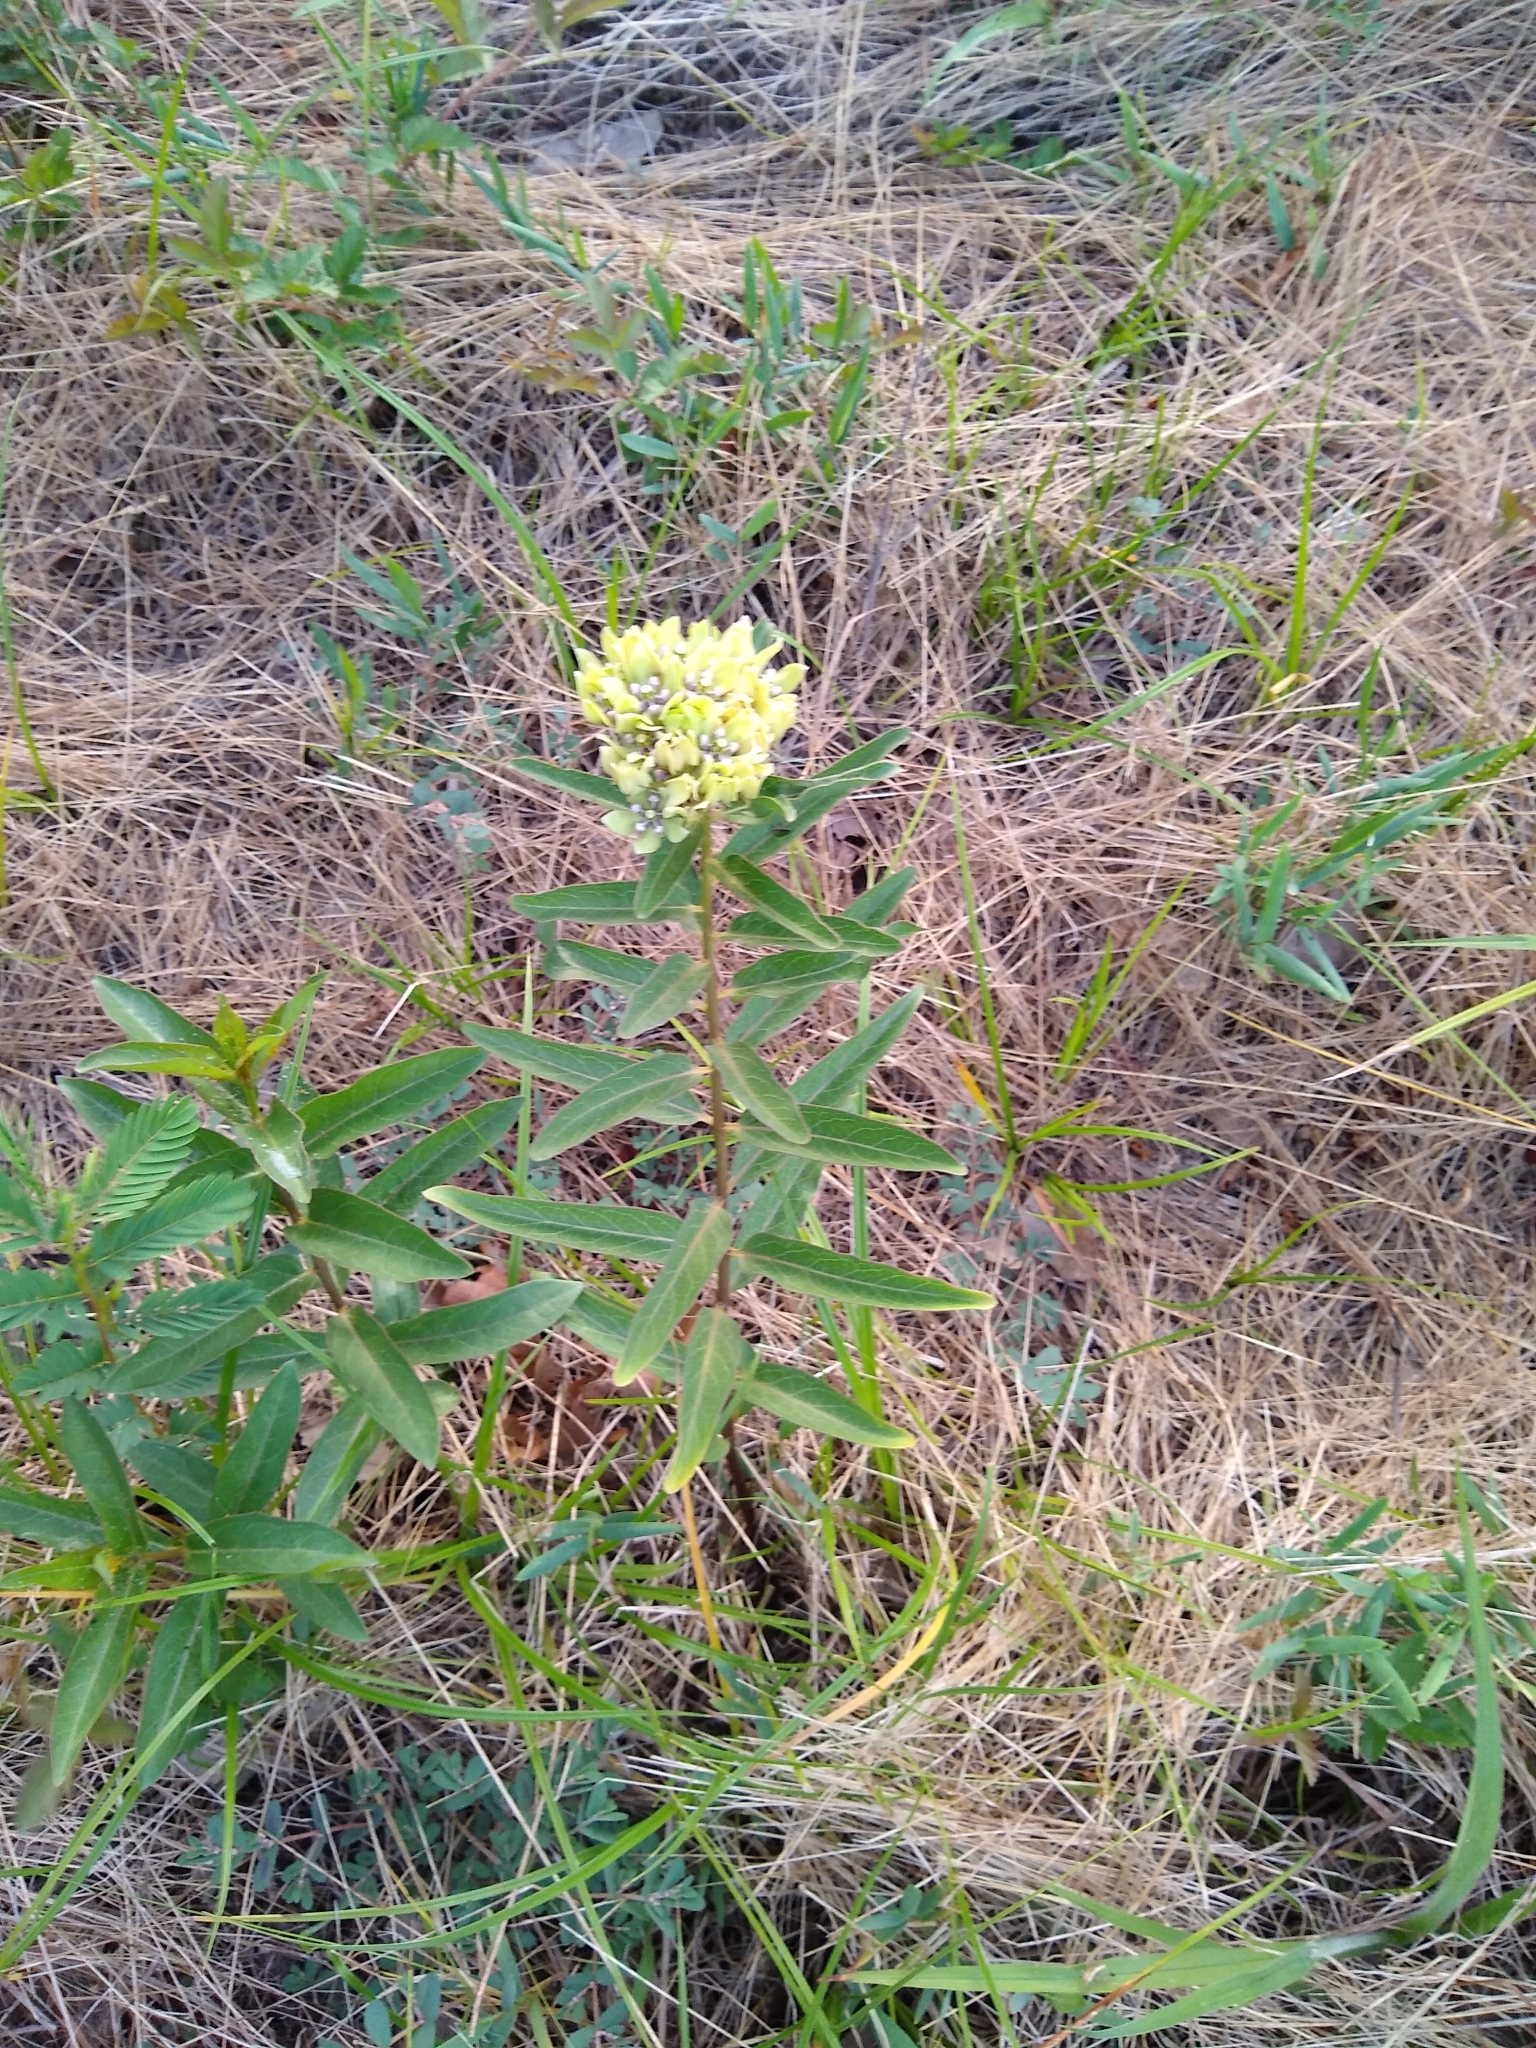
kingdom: Plantae
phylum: Tracheophyta
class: Magnoliopsida
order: Gentianales
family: Apocynaceae
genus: Asclepias
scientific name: Asclepias viridis
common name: Antelope-horns
